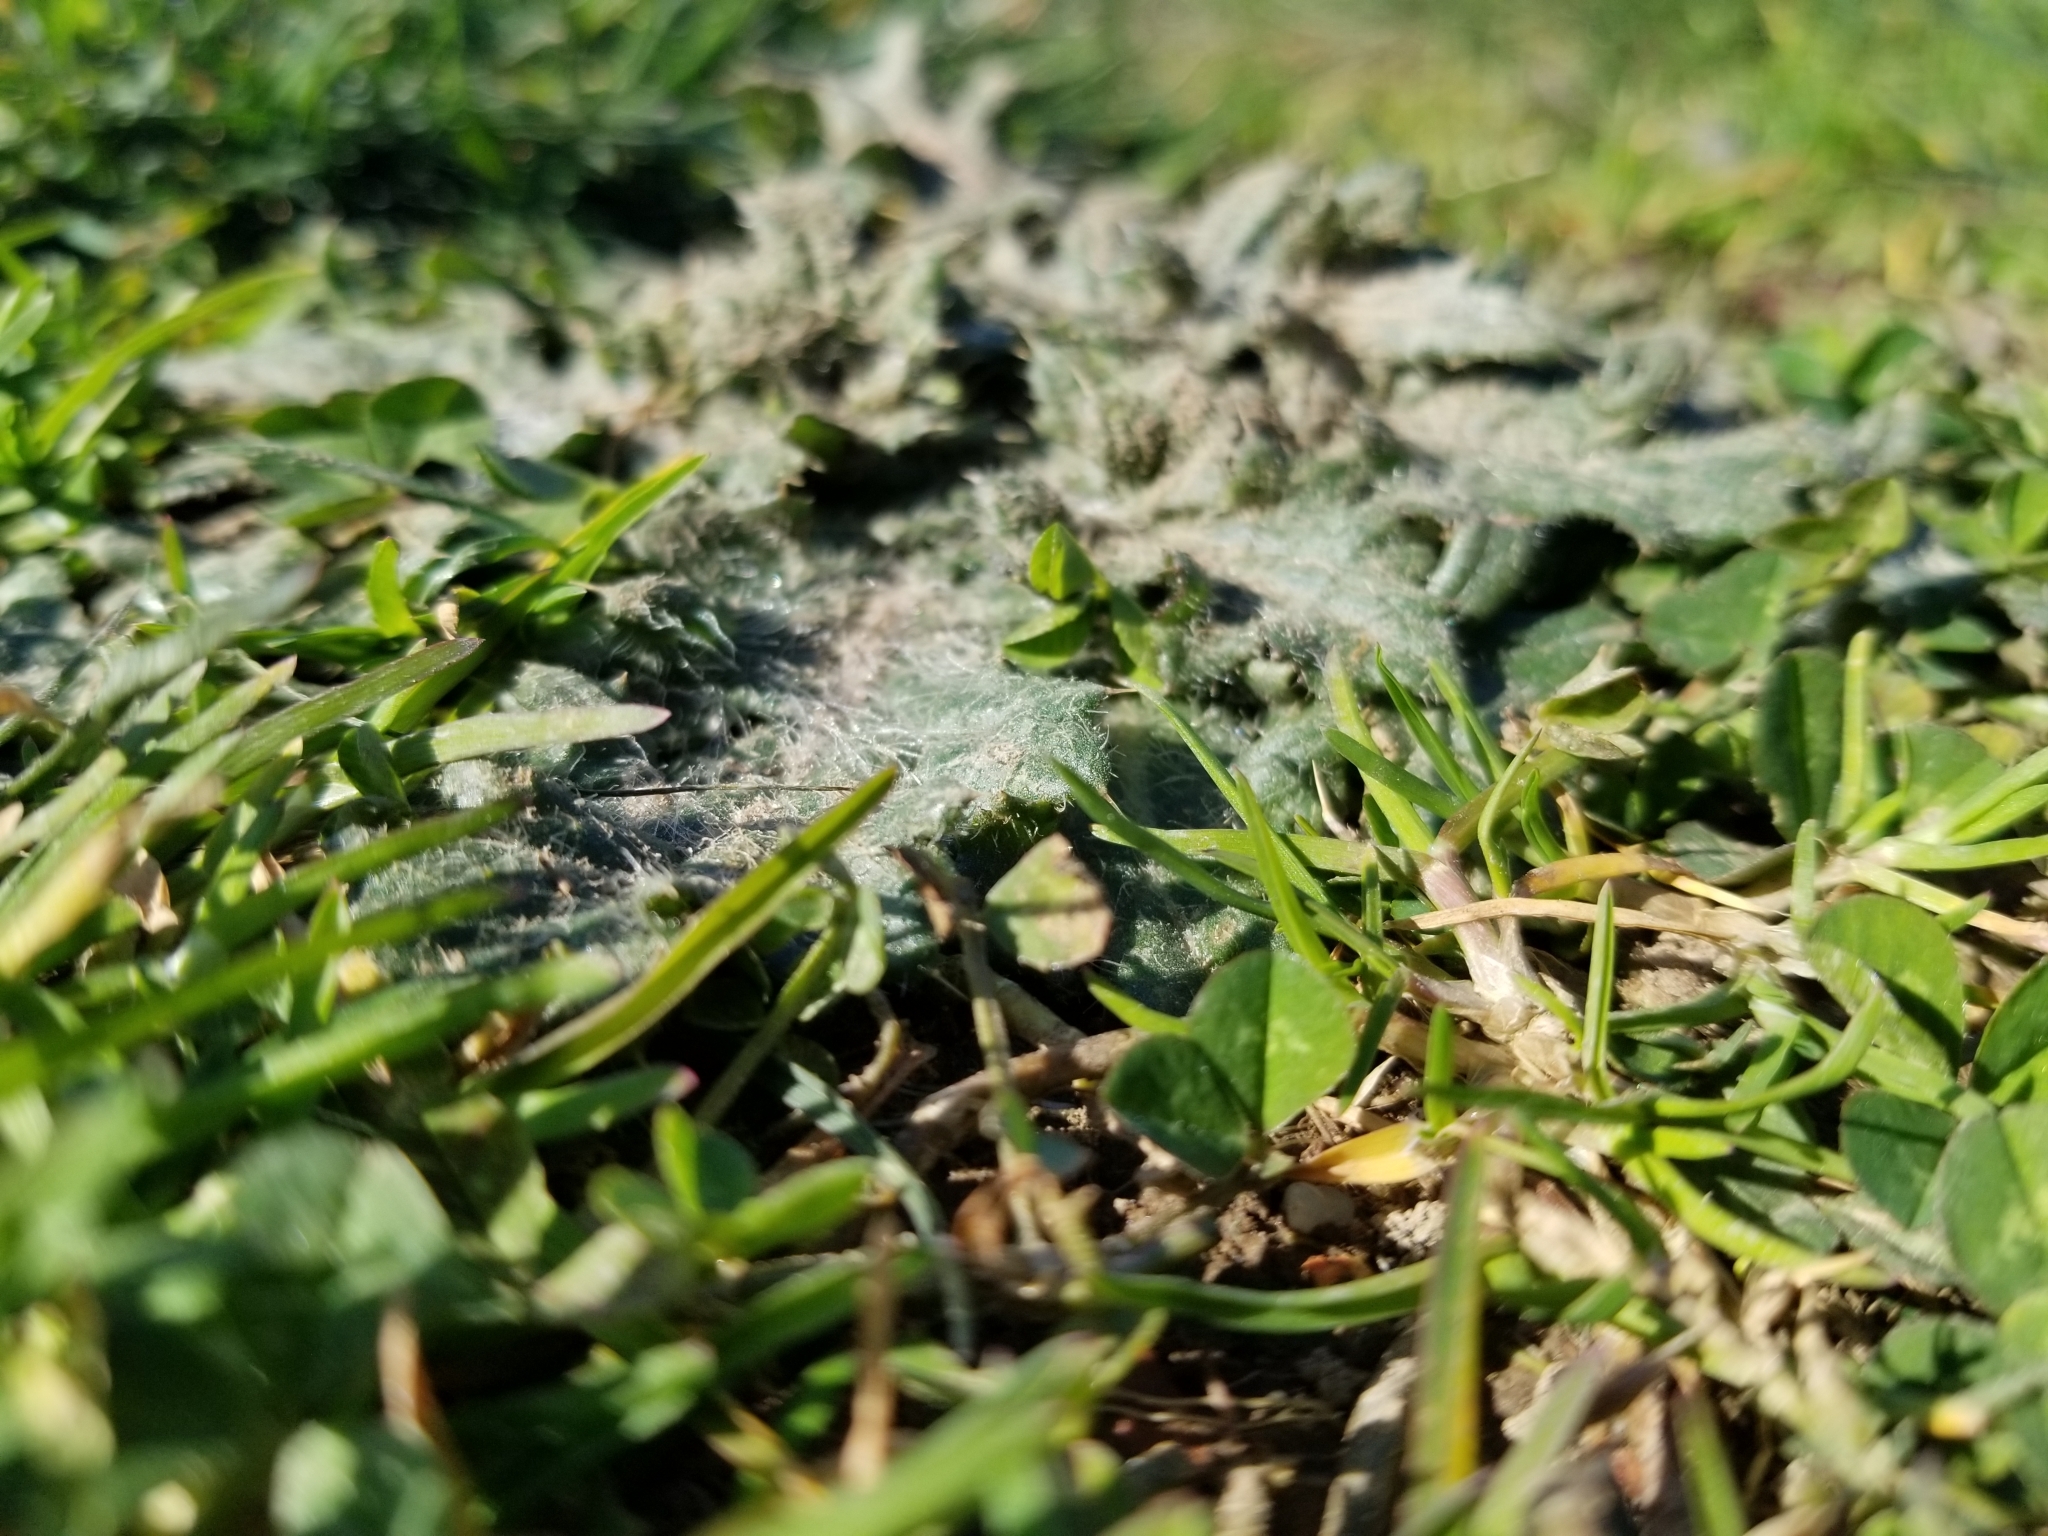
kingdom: Plantae
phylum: Tracheophyta
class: Magnoliopsida
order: Asterales
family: Asteraceae
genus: Cirsium
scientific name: Cirsium vulgare
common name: Bull thistle
